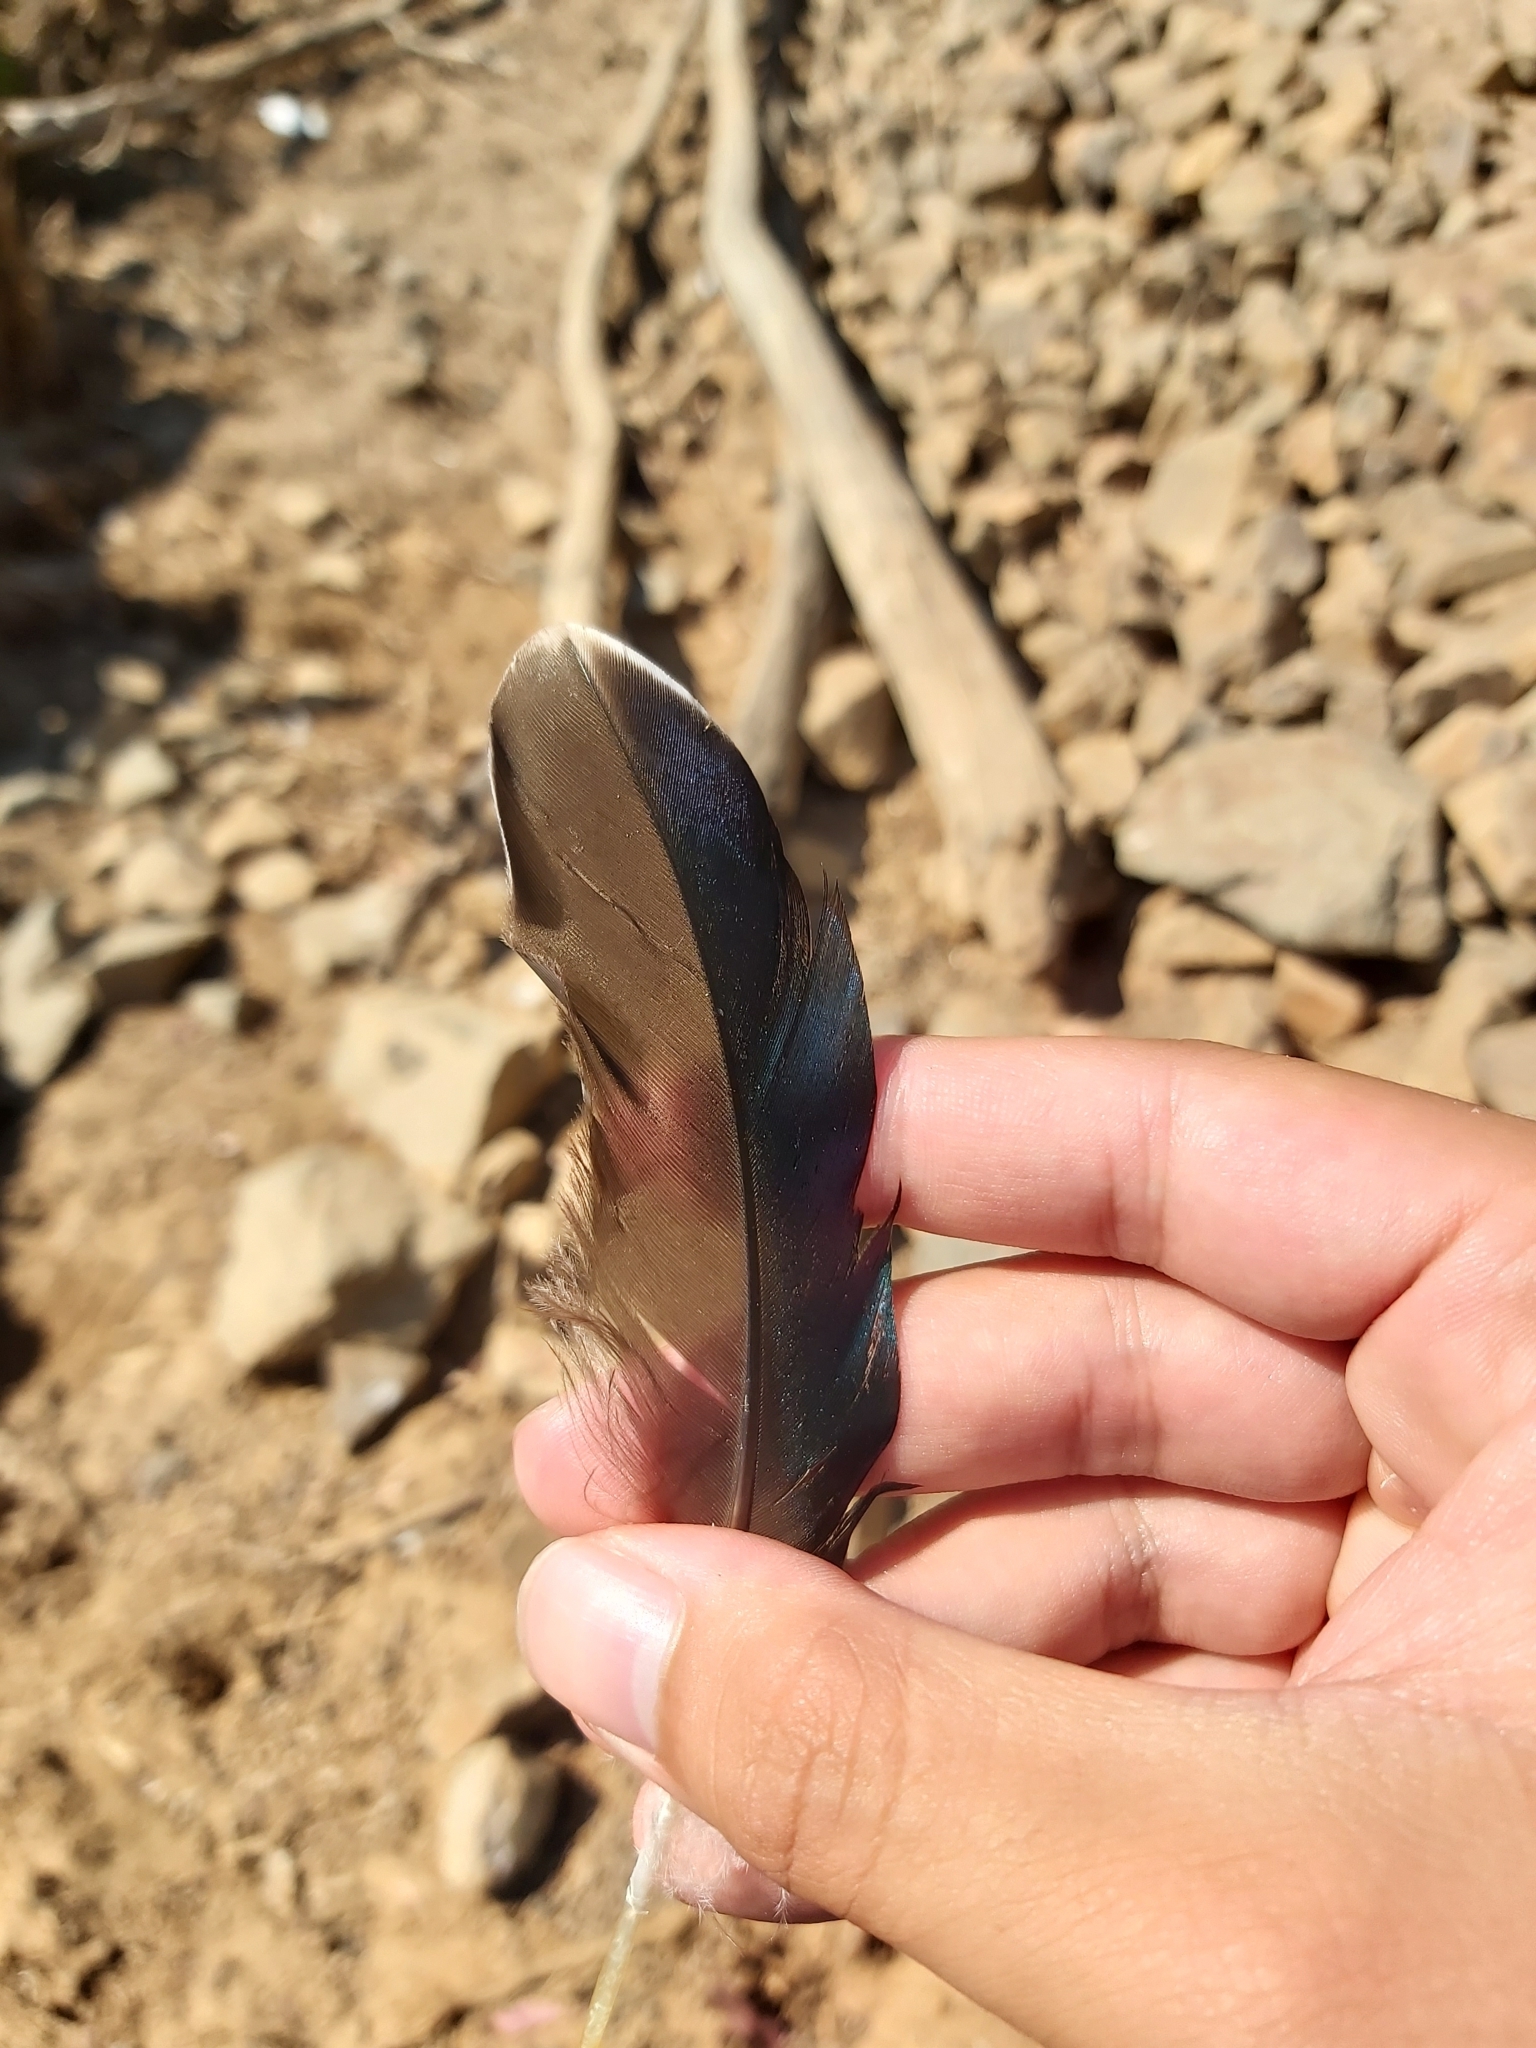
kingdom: Animalia
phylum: Chordata
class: Aves
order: Anseriformes
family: Anatidae
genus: Anas
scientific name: Anas superciliosa
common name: Pacific black duck
